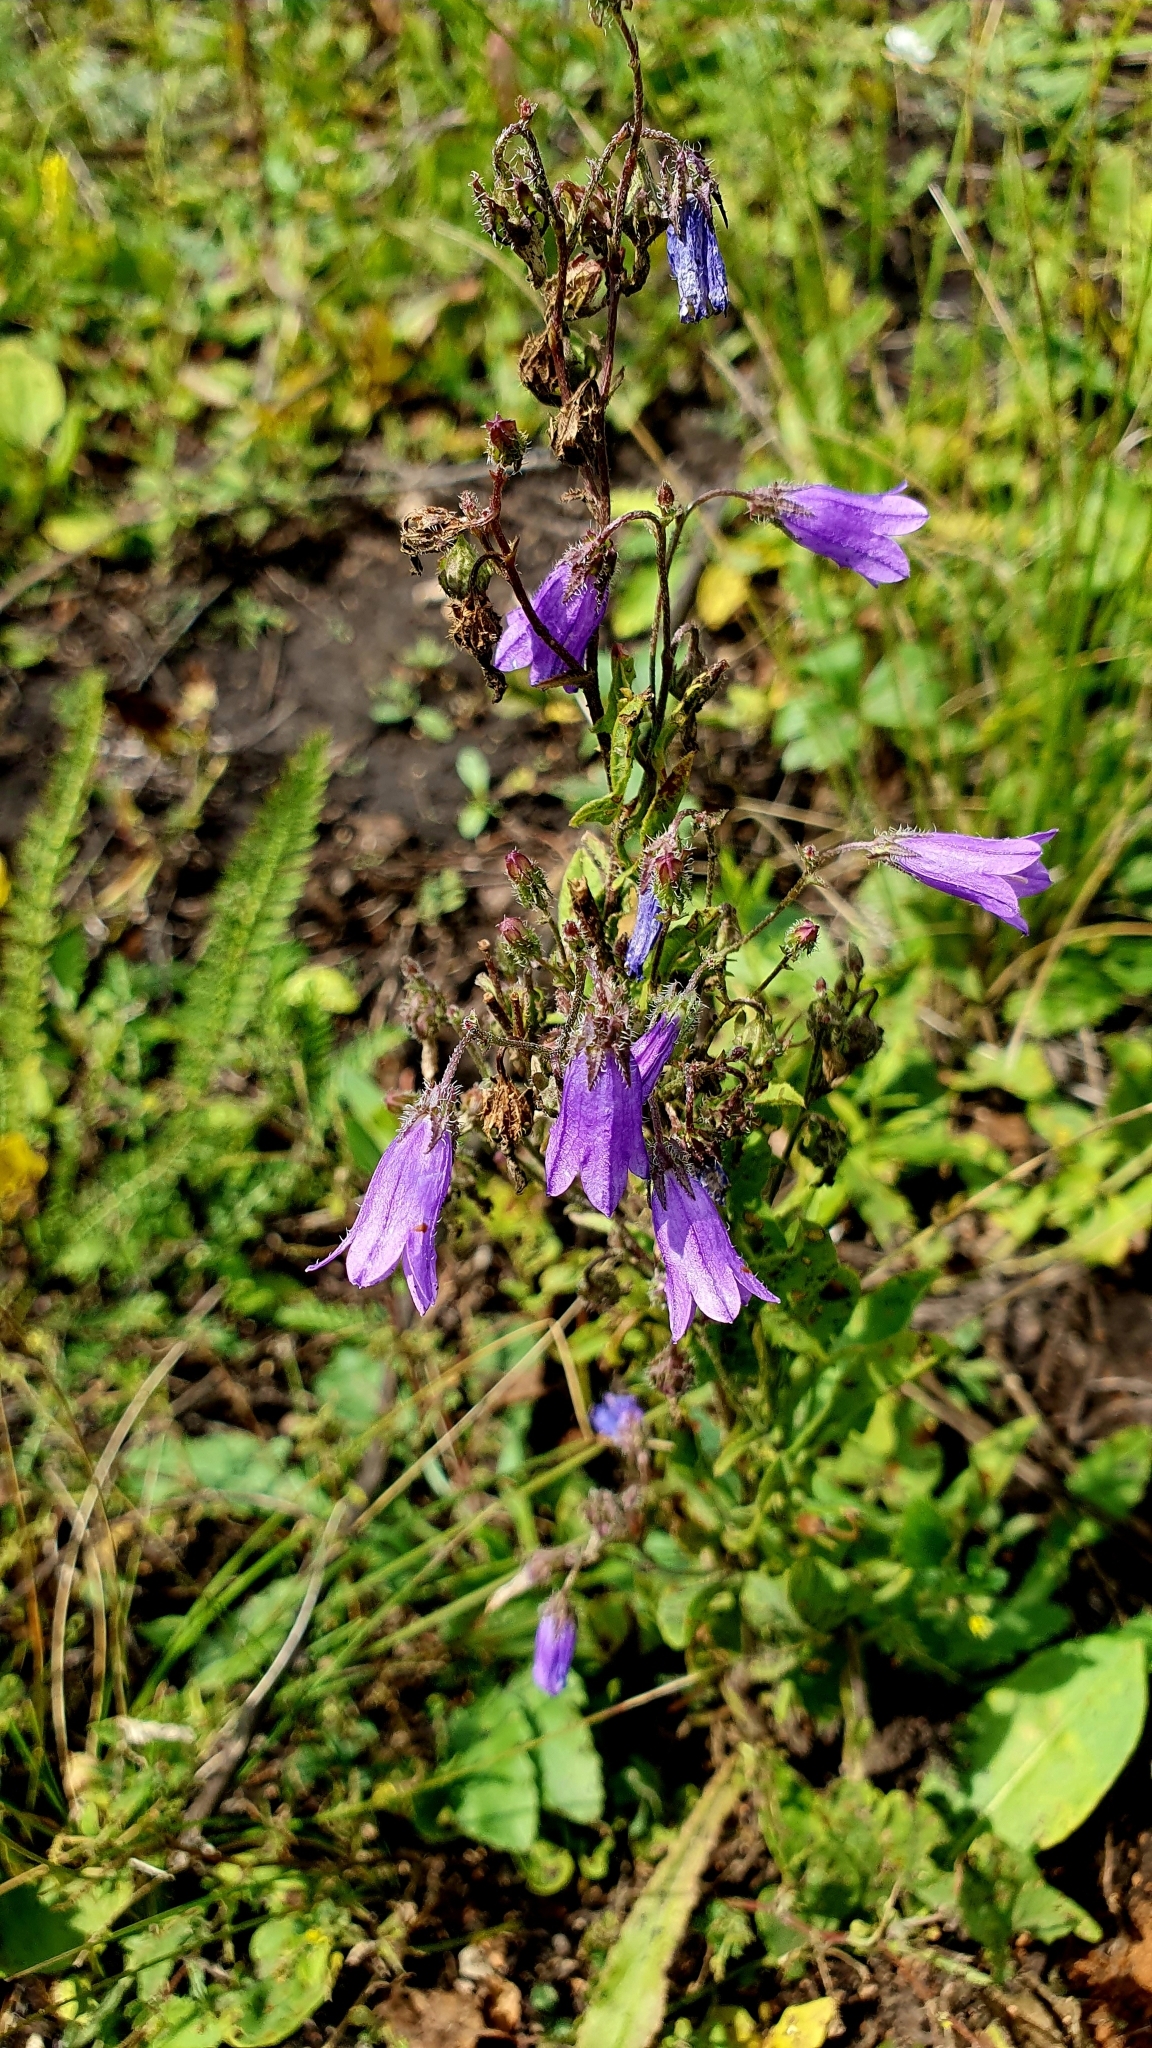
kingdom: Plantae
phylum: Tracheophyta
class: Magnoliopsida
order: Asterales
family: Campanulaceae
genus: Campanula
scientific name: Campanula sibirica
